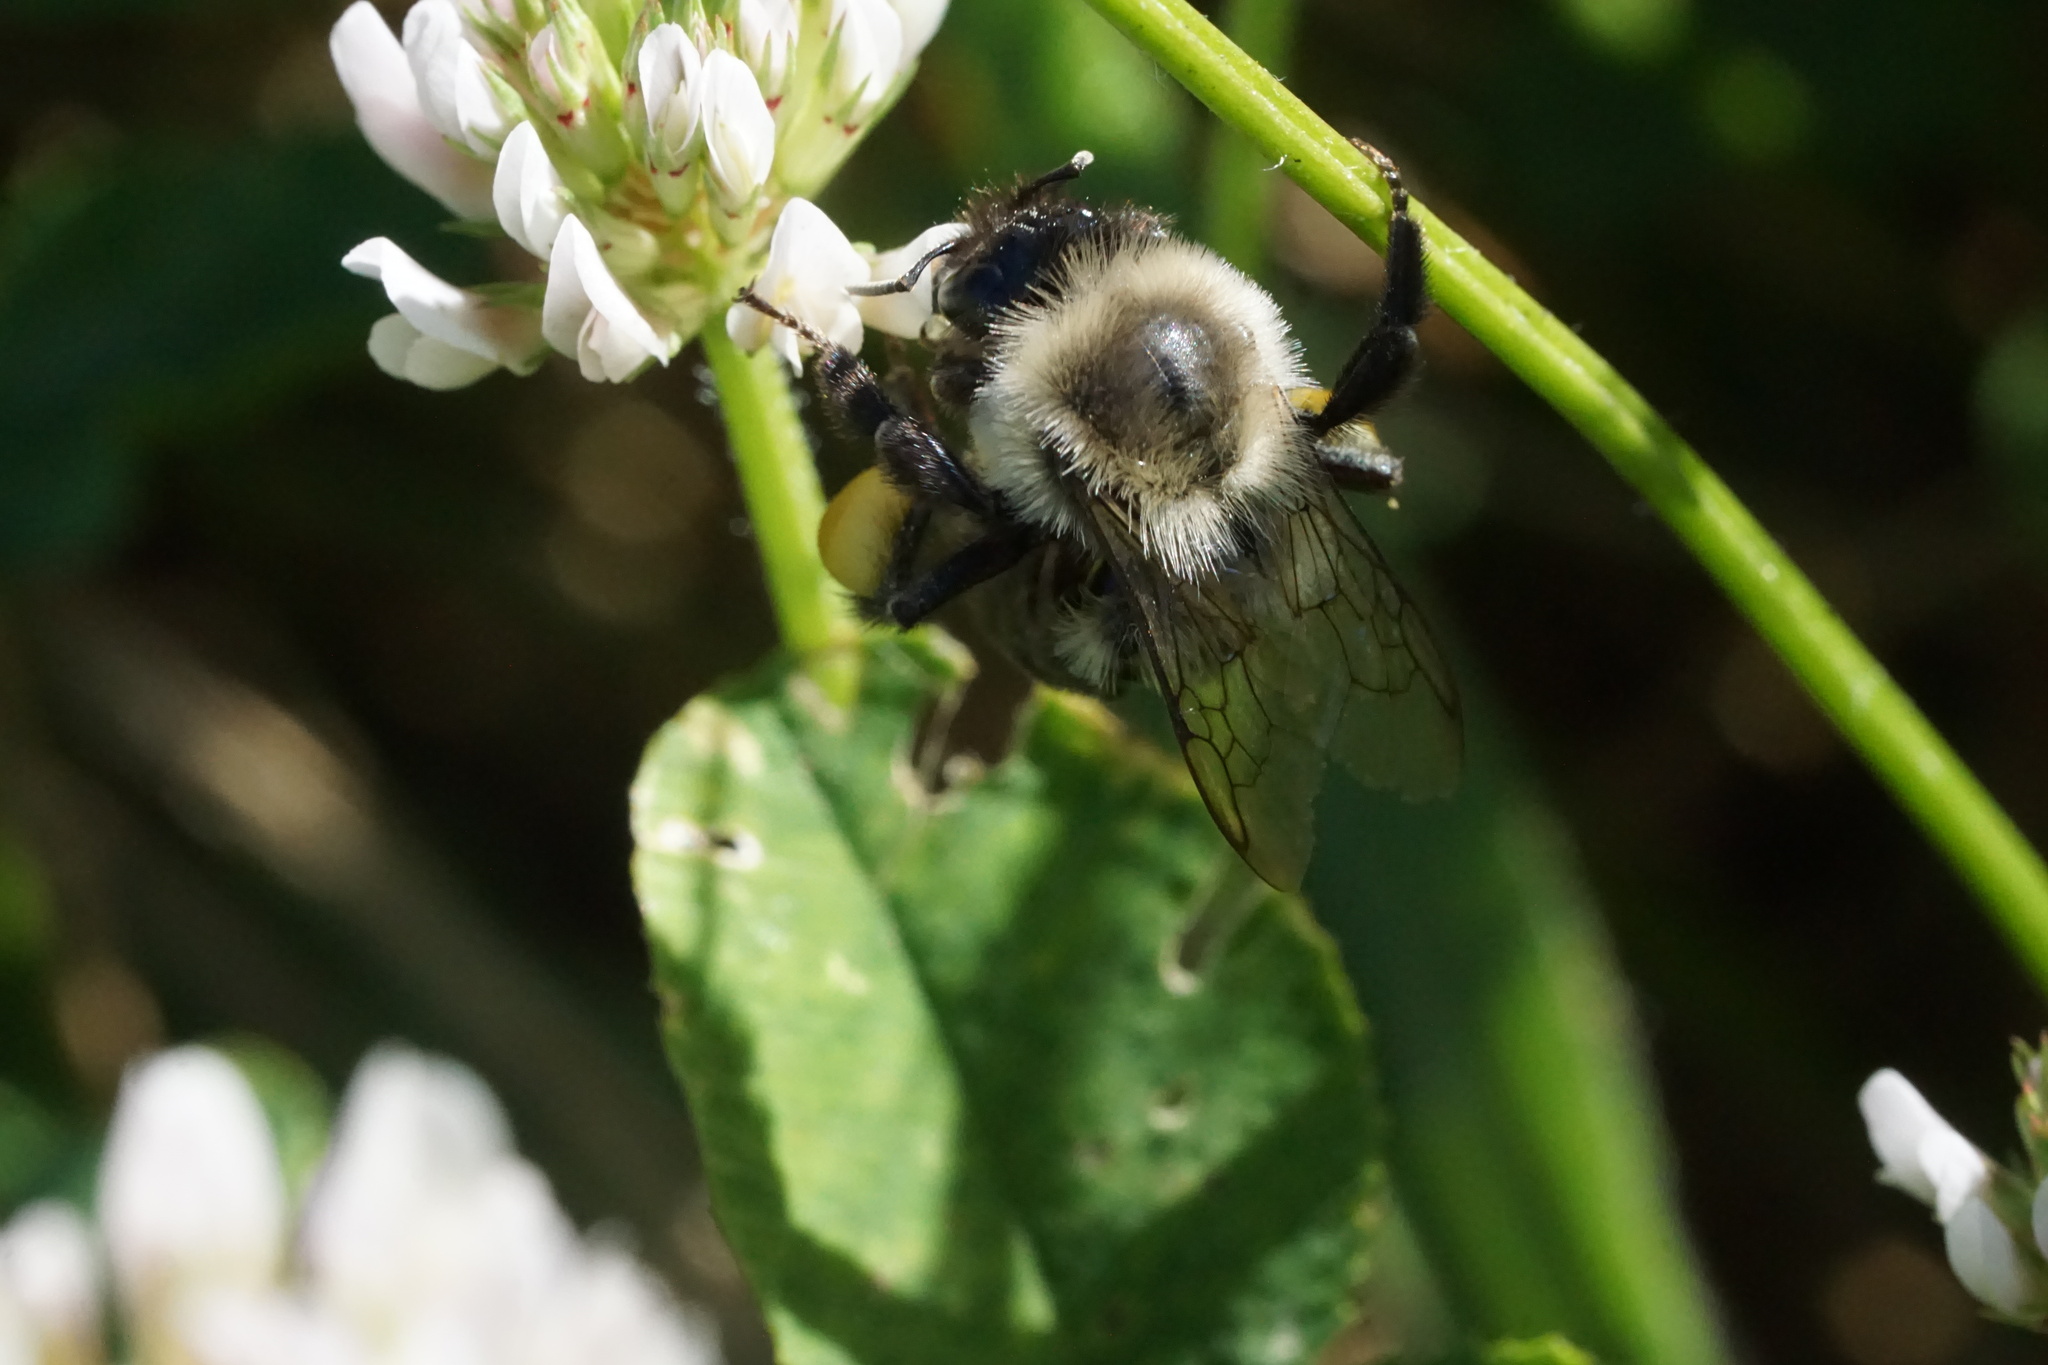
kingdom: Animalia
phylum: Arthropoda
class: Insecta
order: Hymenoptera
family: Apidae
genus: Bombus
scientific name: Bombus impatiens
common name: Common eastern bumble bee
